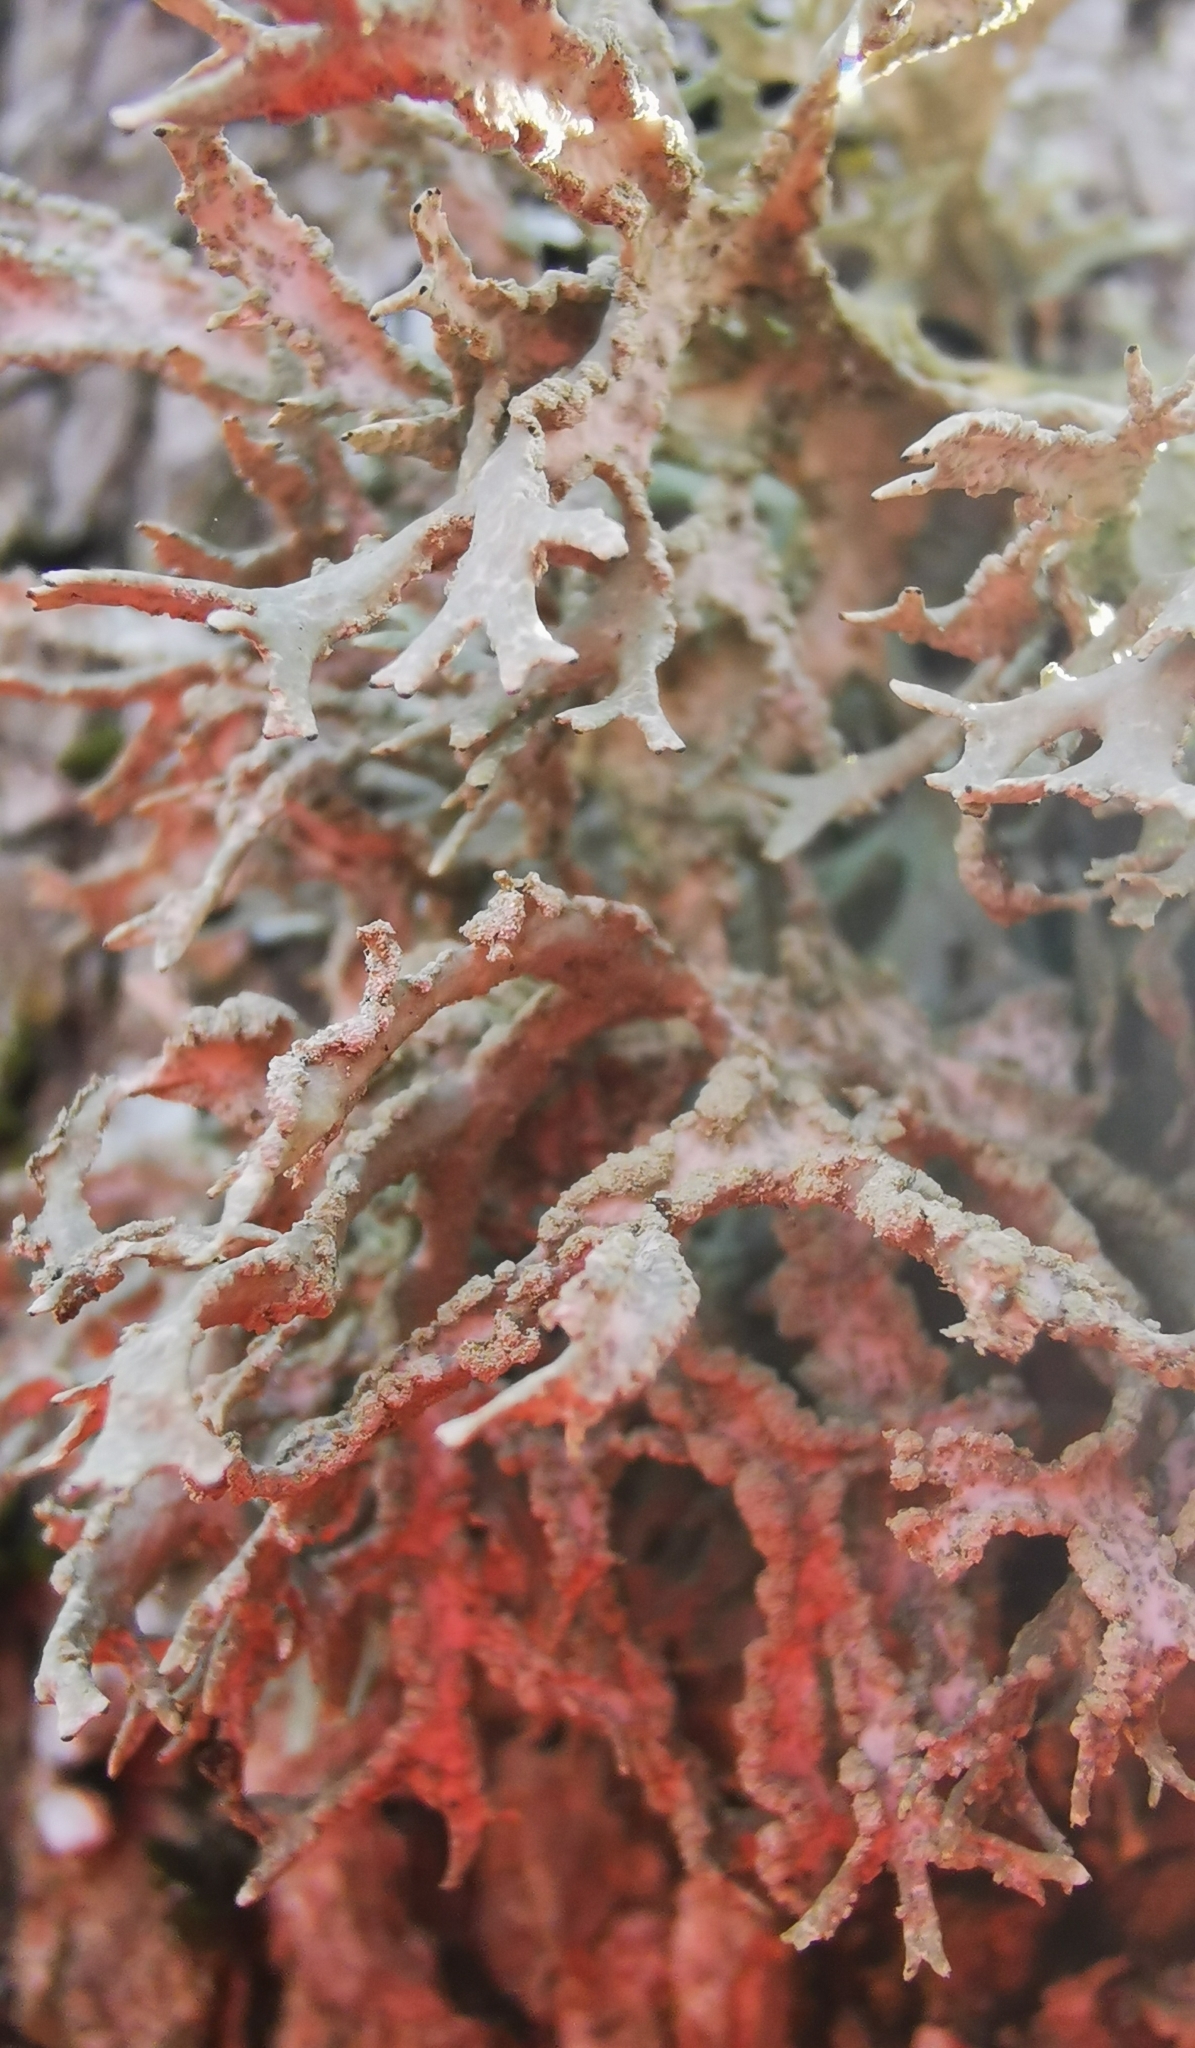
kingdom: Fungi
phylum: Ascomycota
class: Lecanoromycetes
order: Lecanorales
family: Parmeliaceae
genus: Evernia
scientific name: Evernia prunastri
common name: Oak moss
